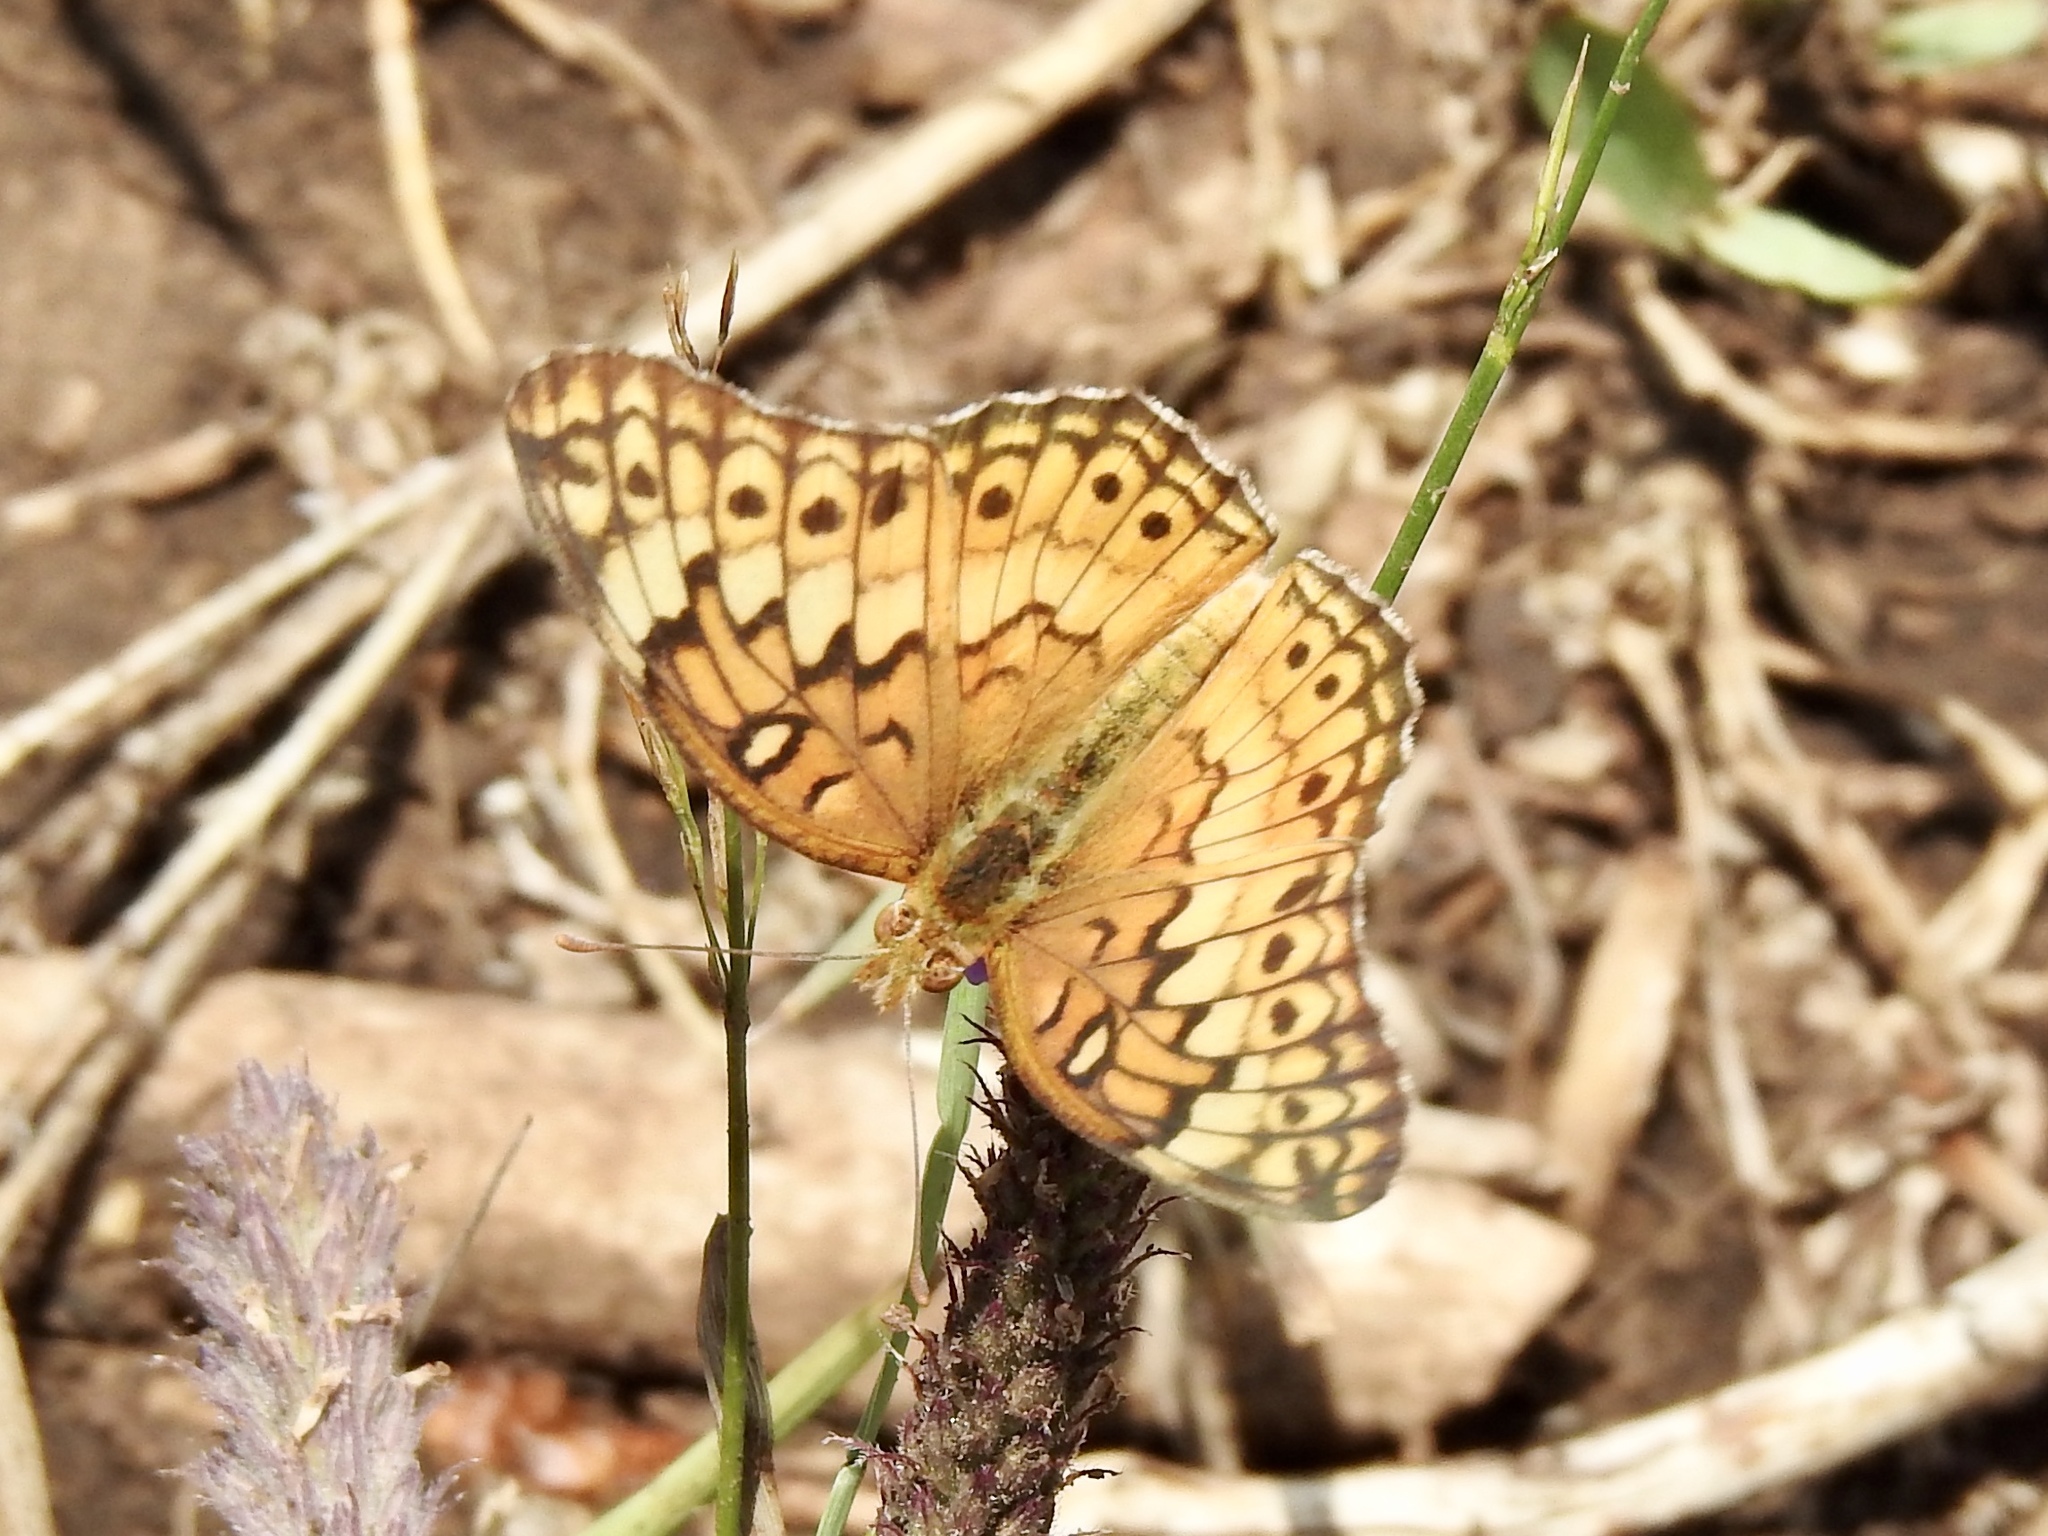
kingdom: Animalia
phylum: Arthropoda
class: Insecta
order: Lepidoptera
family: Nymphalidae
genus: Euptoieta
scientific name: Euptoieta claudia
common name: Variegated fritillary
